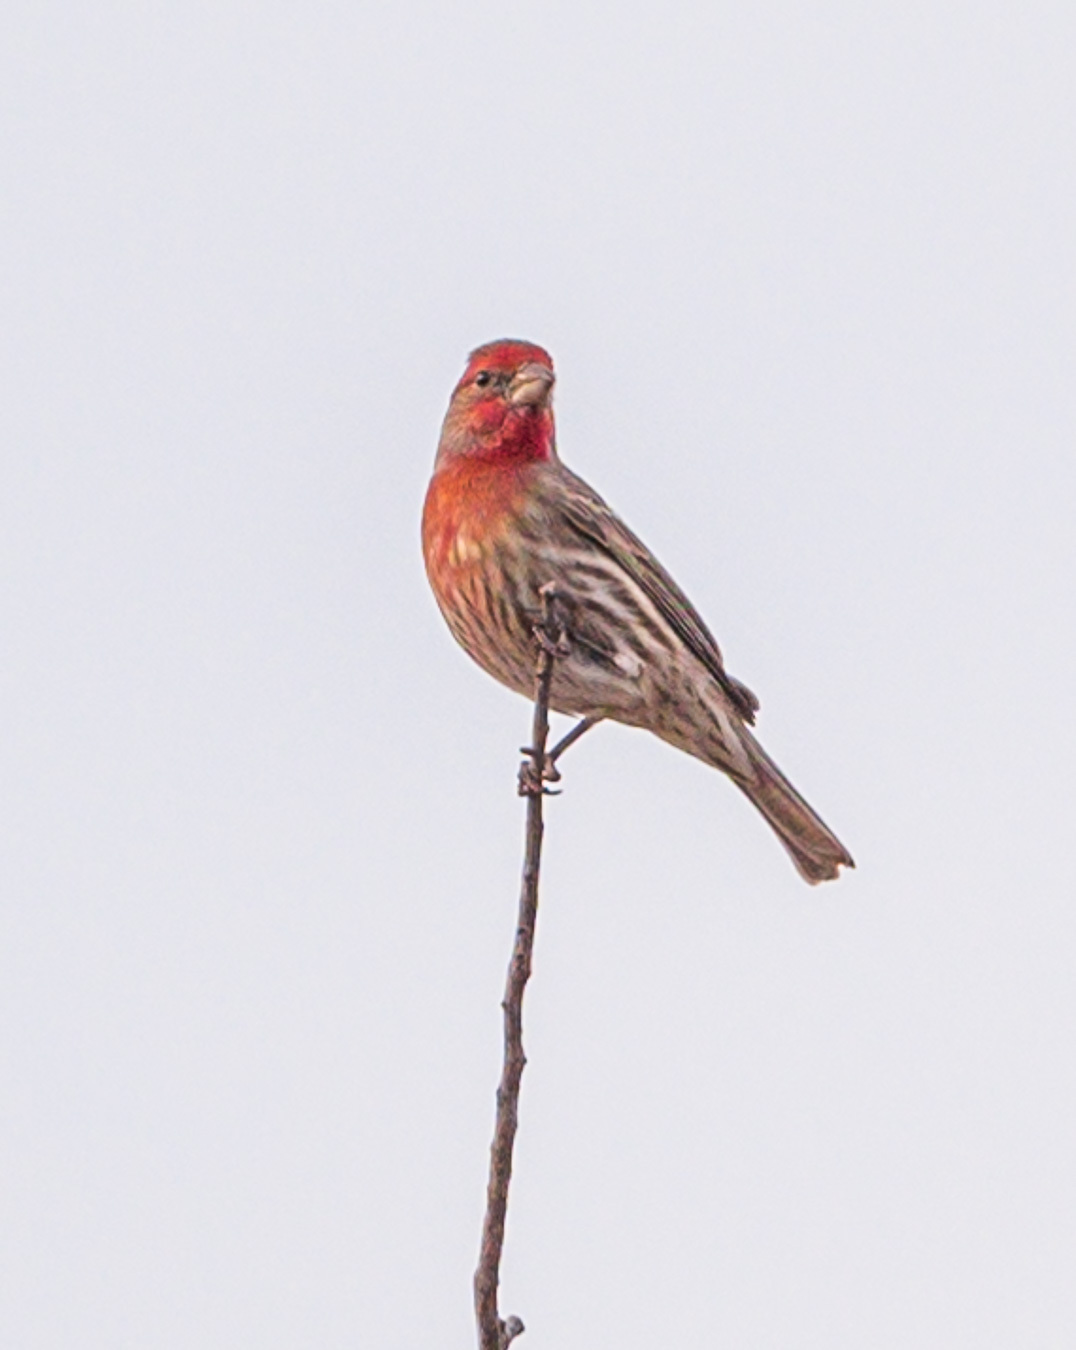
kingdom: Animalia
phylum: Chordata
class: Aves
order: Passeriformes
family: Fringillidae
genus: Haemorhous
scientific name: Haemorhous mexicanus
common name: House finch
